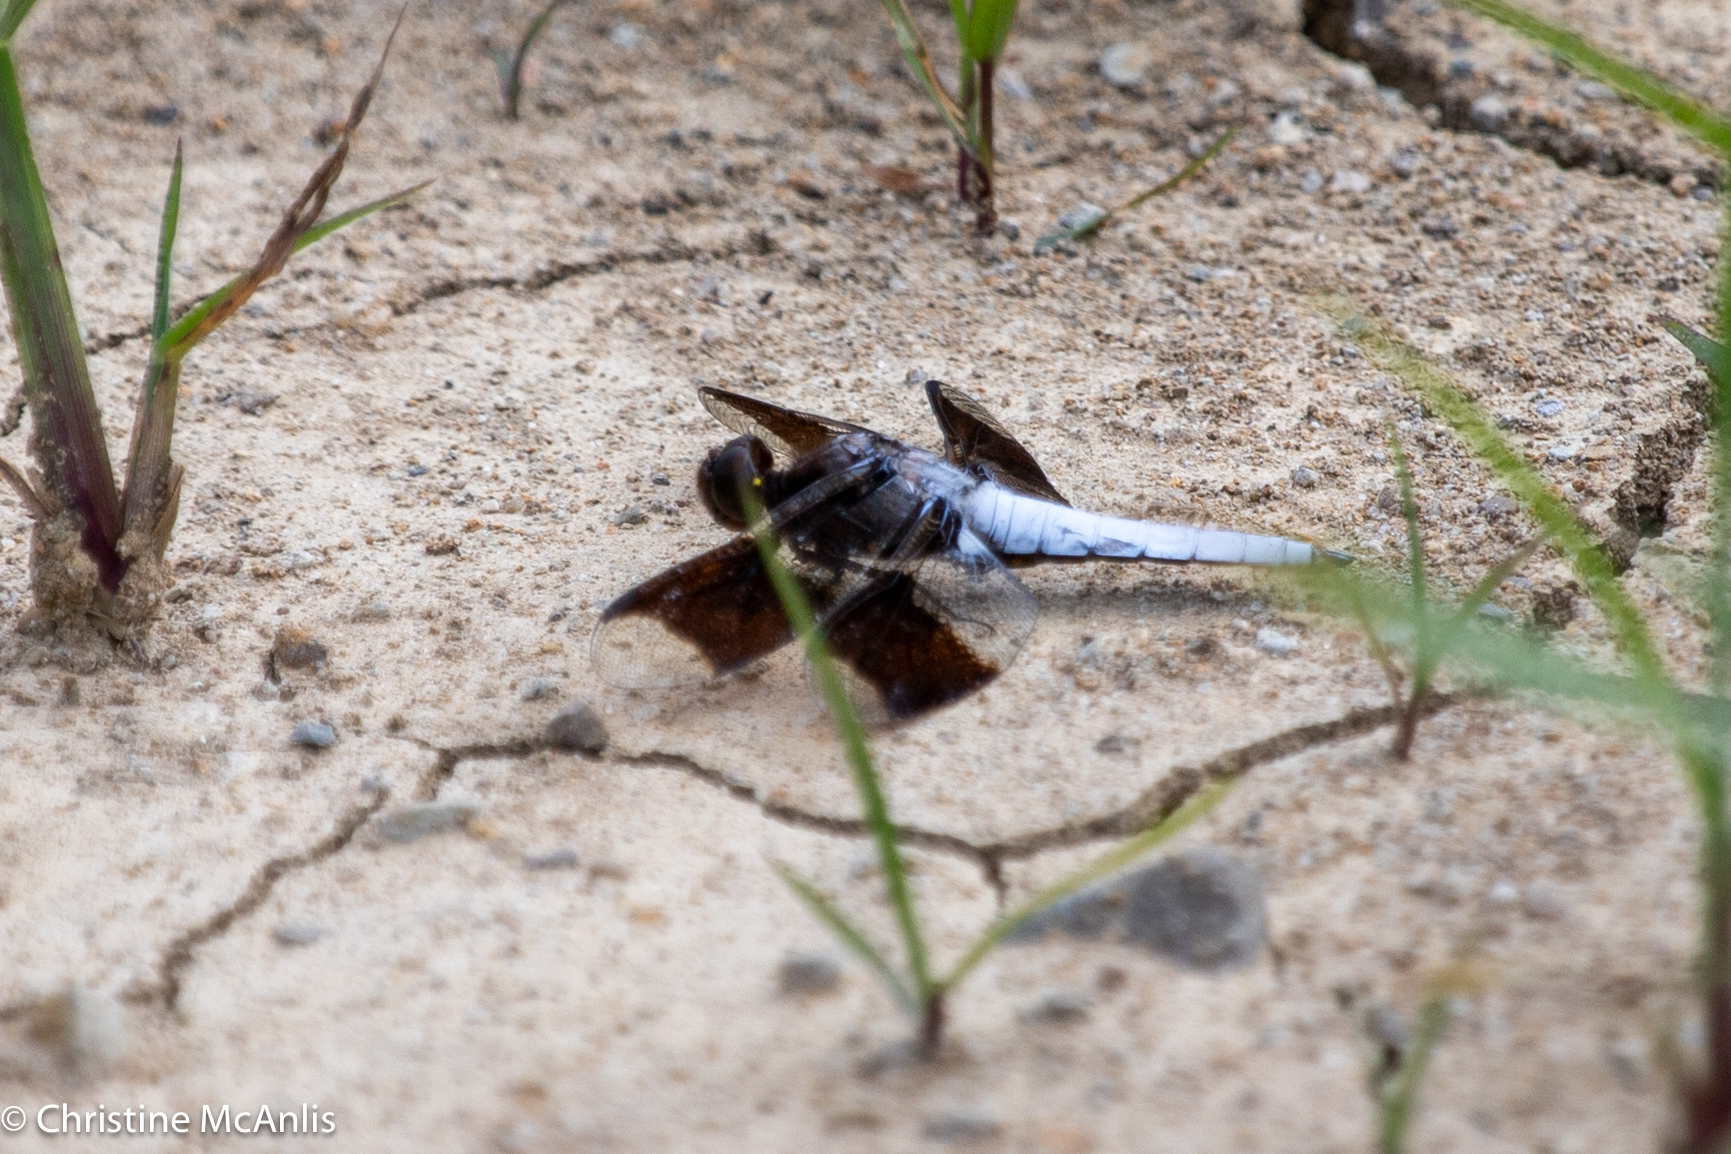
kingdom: Animalia
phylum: Arthropoda
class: Insecta
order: Odonata
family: Libellulidae
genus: Plathemis
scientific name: Plathemis lydia
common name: Common whitetail
